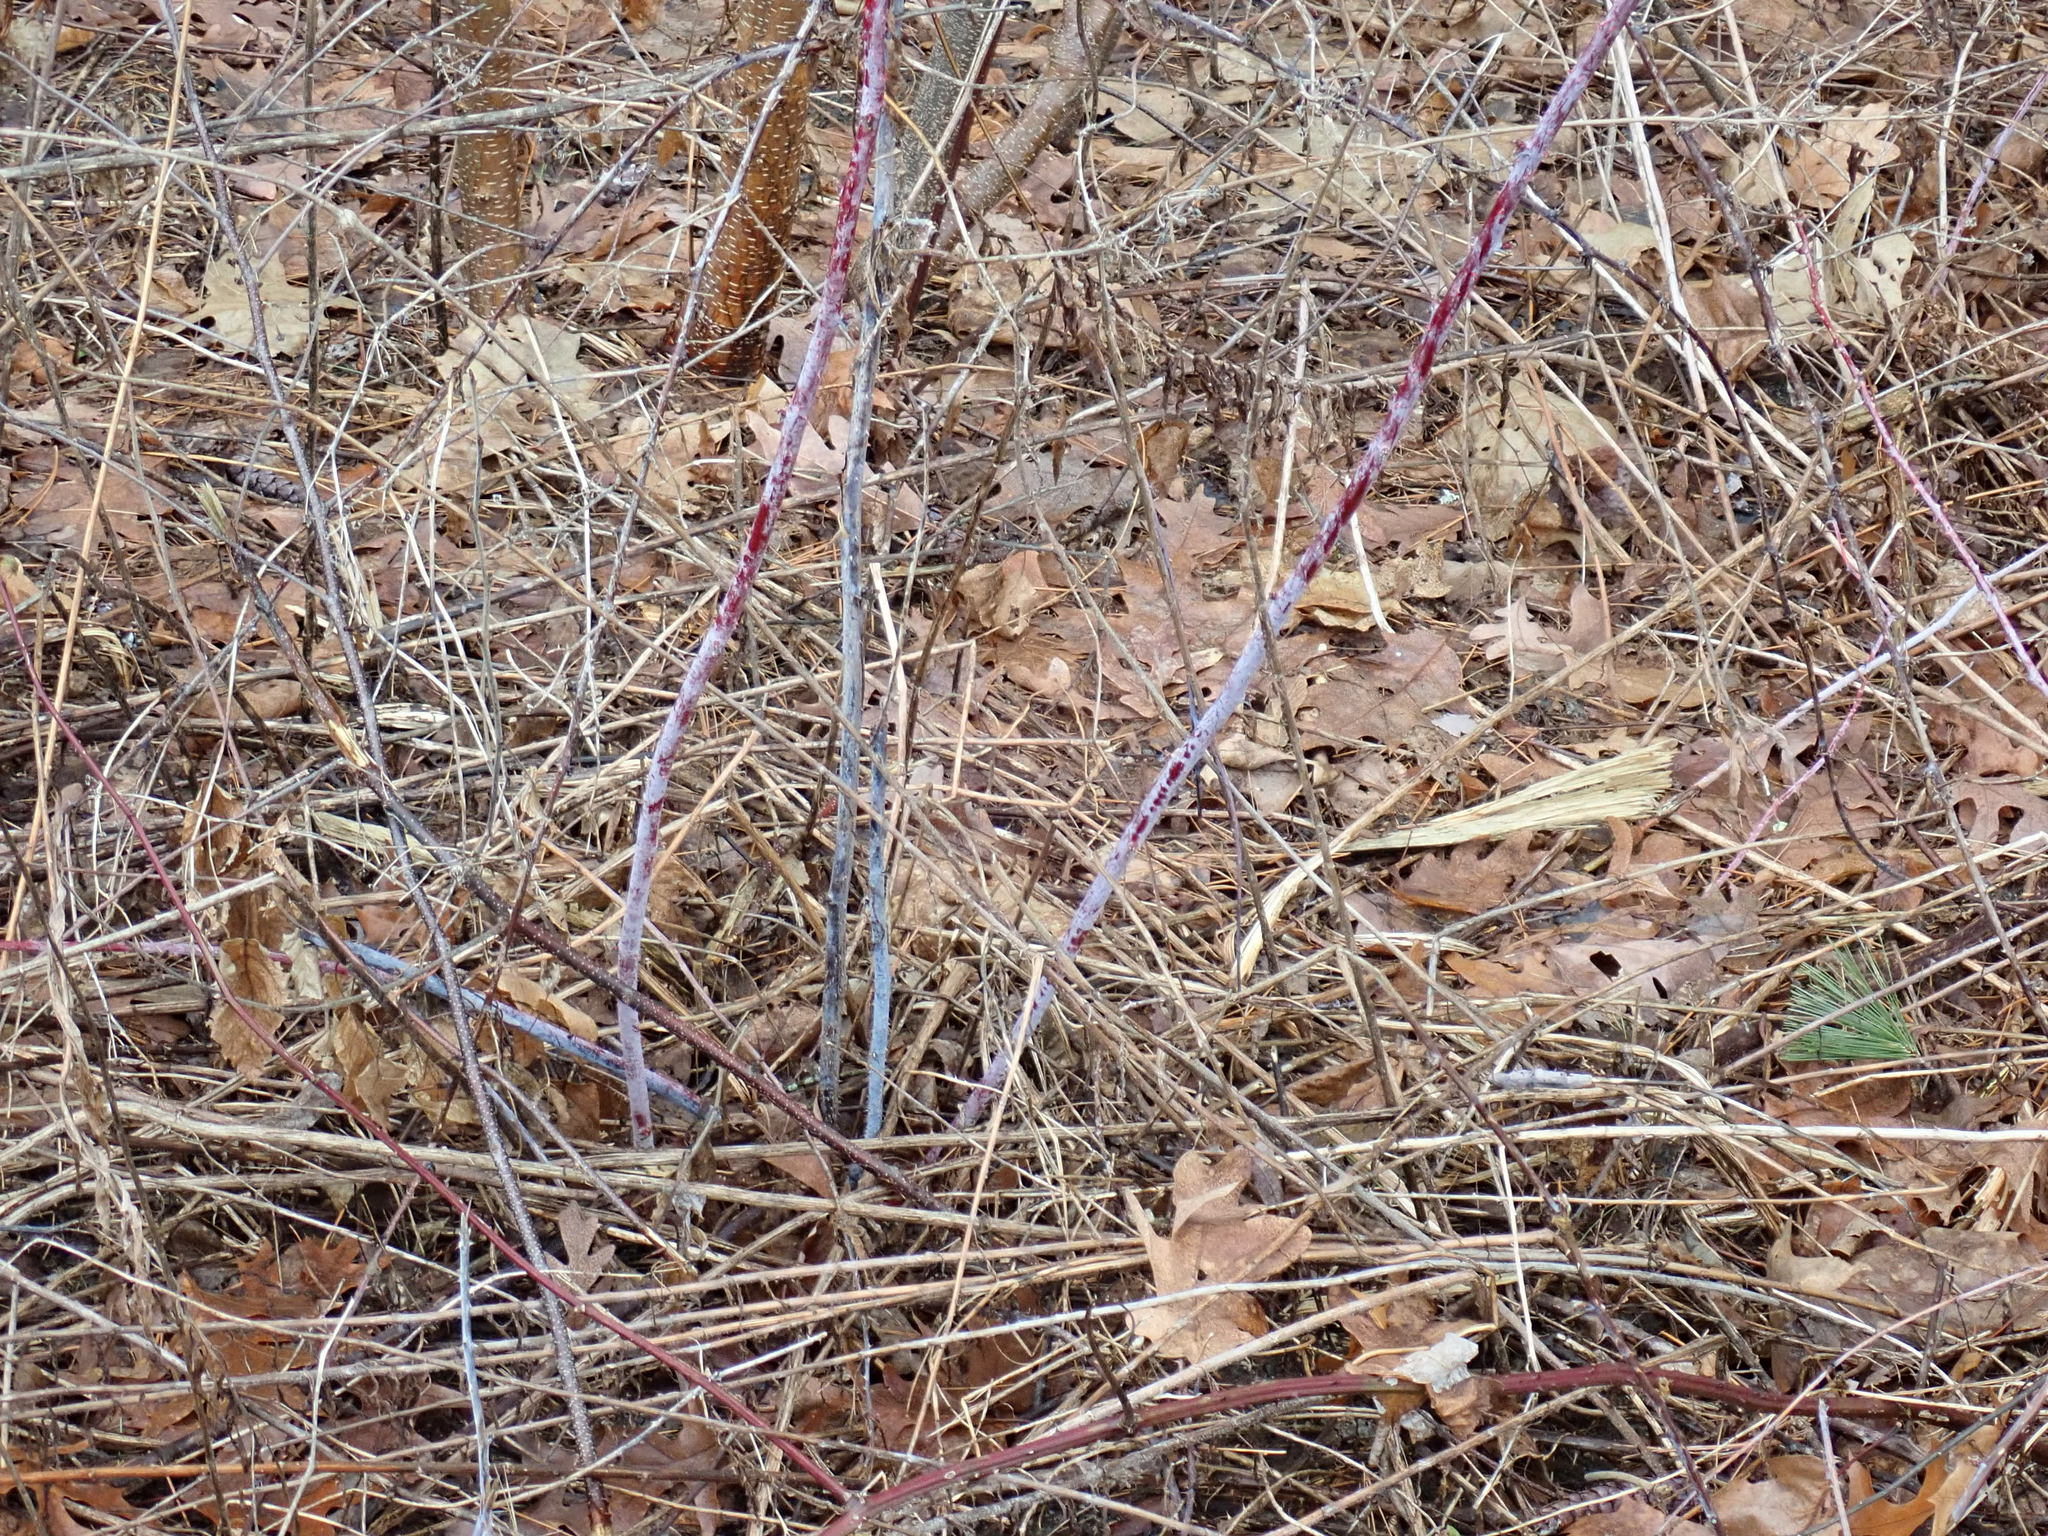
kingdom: Plantae
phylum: Tracheophyta
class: Magnoliopsida
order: Rosales
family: Rosaceae
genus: Rubus
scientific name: Rubus occidentalis
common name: Black raspberry
